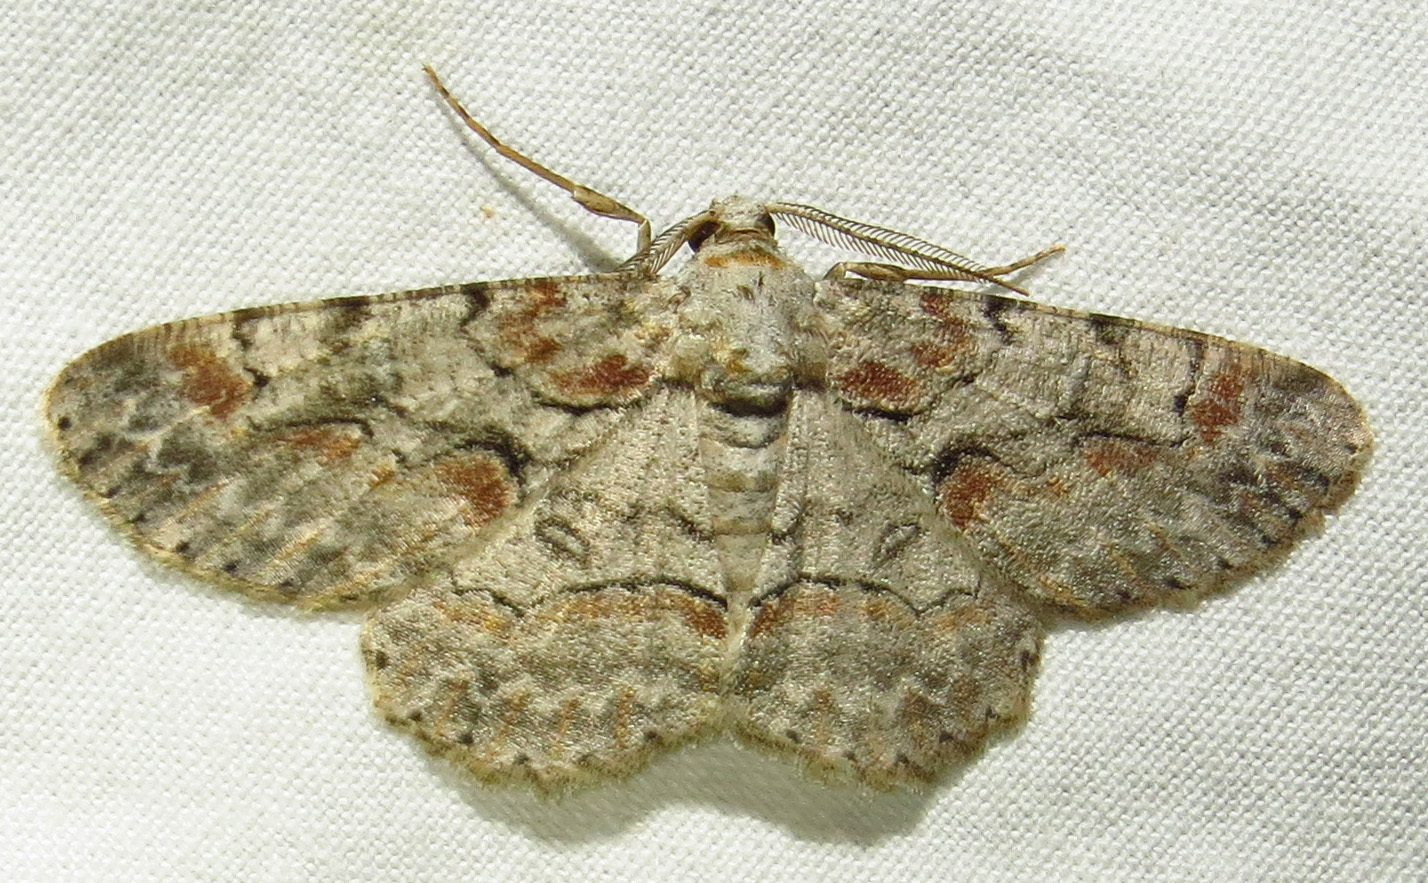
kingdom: Animalia
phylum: Arthropoda
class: Insecta
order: Lepidoptera
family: Geometridae
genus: Iridopsis
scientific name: Iridopsis defectaria
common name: Brown-shaded gray
